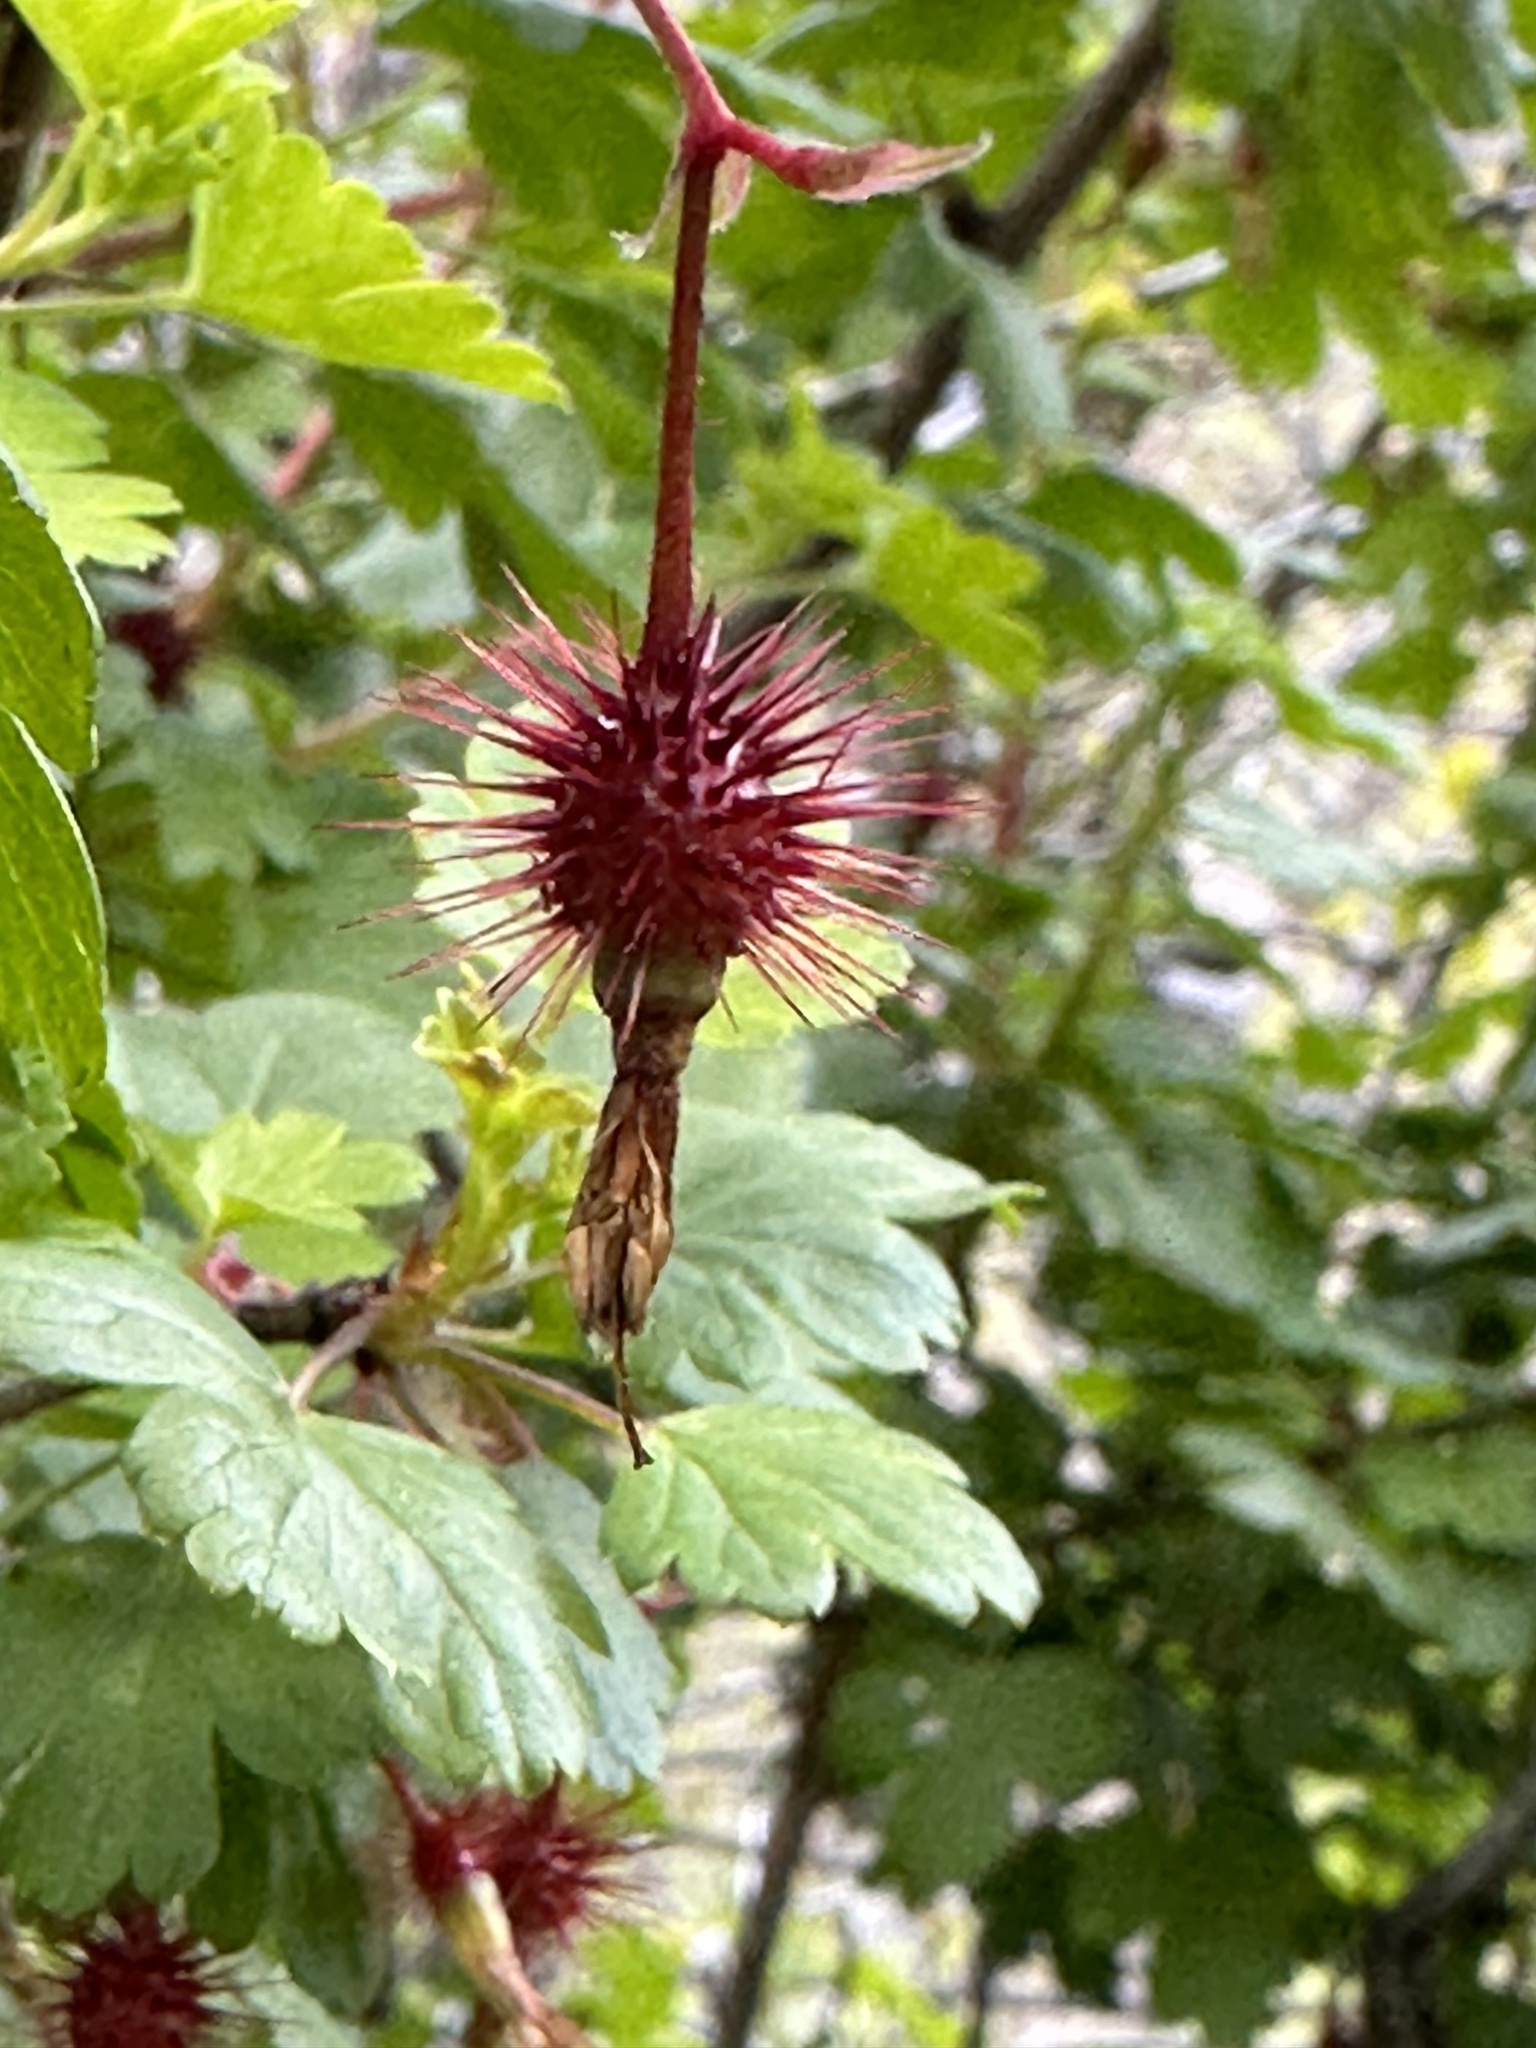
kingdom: Plantae
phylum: Tracheophyta
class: Magnoliopsida
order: Saxifragales
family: Grossulariaceae
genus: Ribes
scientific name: Ribes californicum
